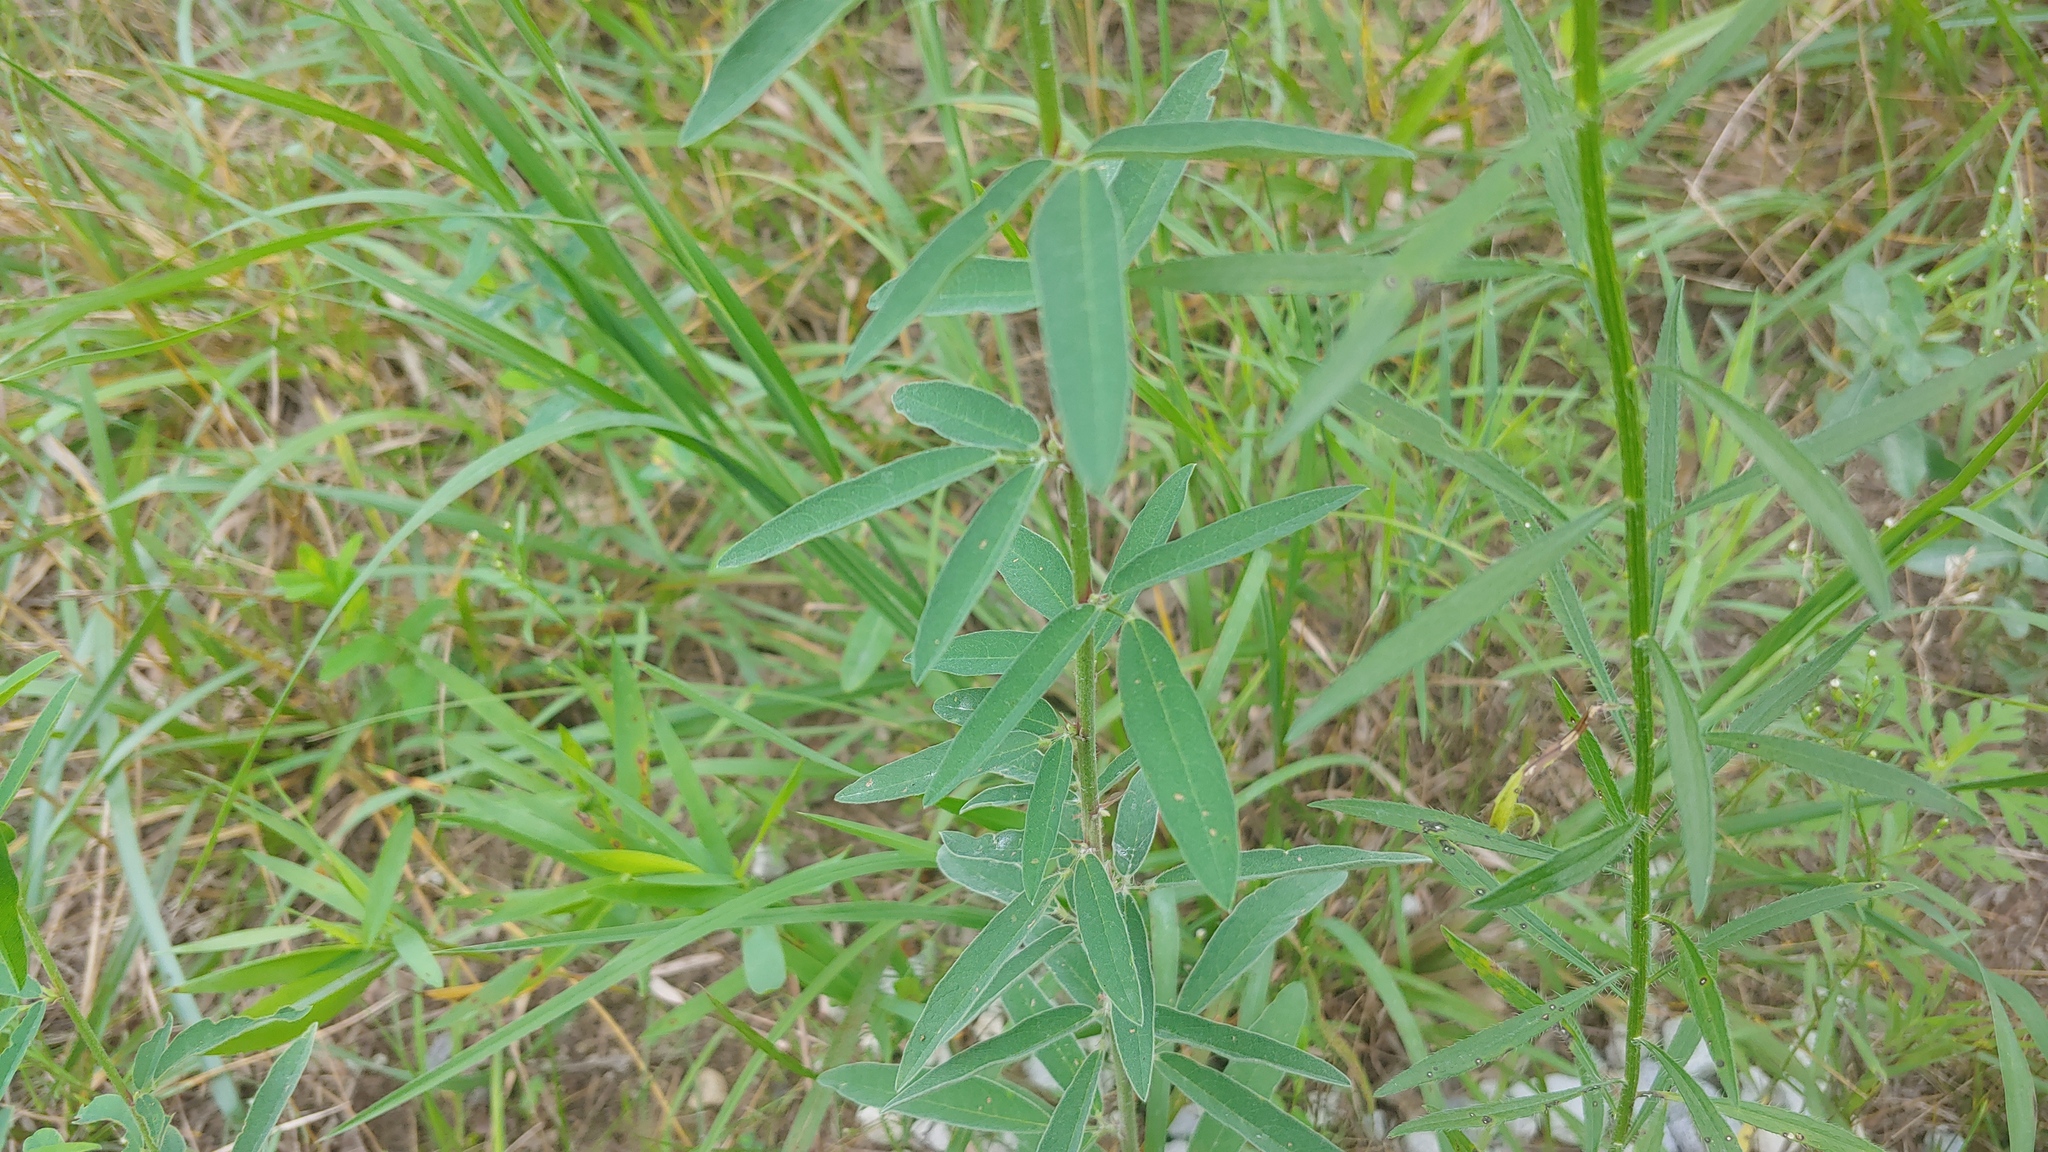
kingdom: Plantae
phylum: Tracheophyta
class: Magnoliopsida
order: Fabales
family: Fabaceae
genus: Desmodium
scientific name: Desmodium sessilifolium
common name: Sessile tick-clover
